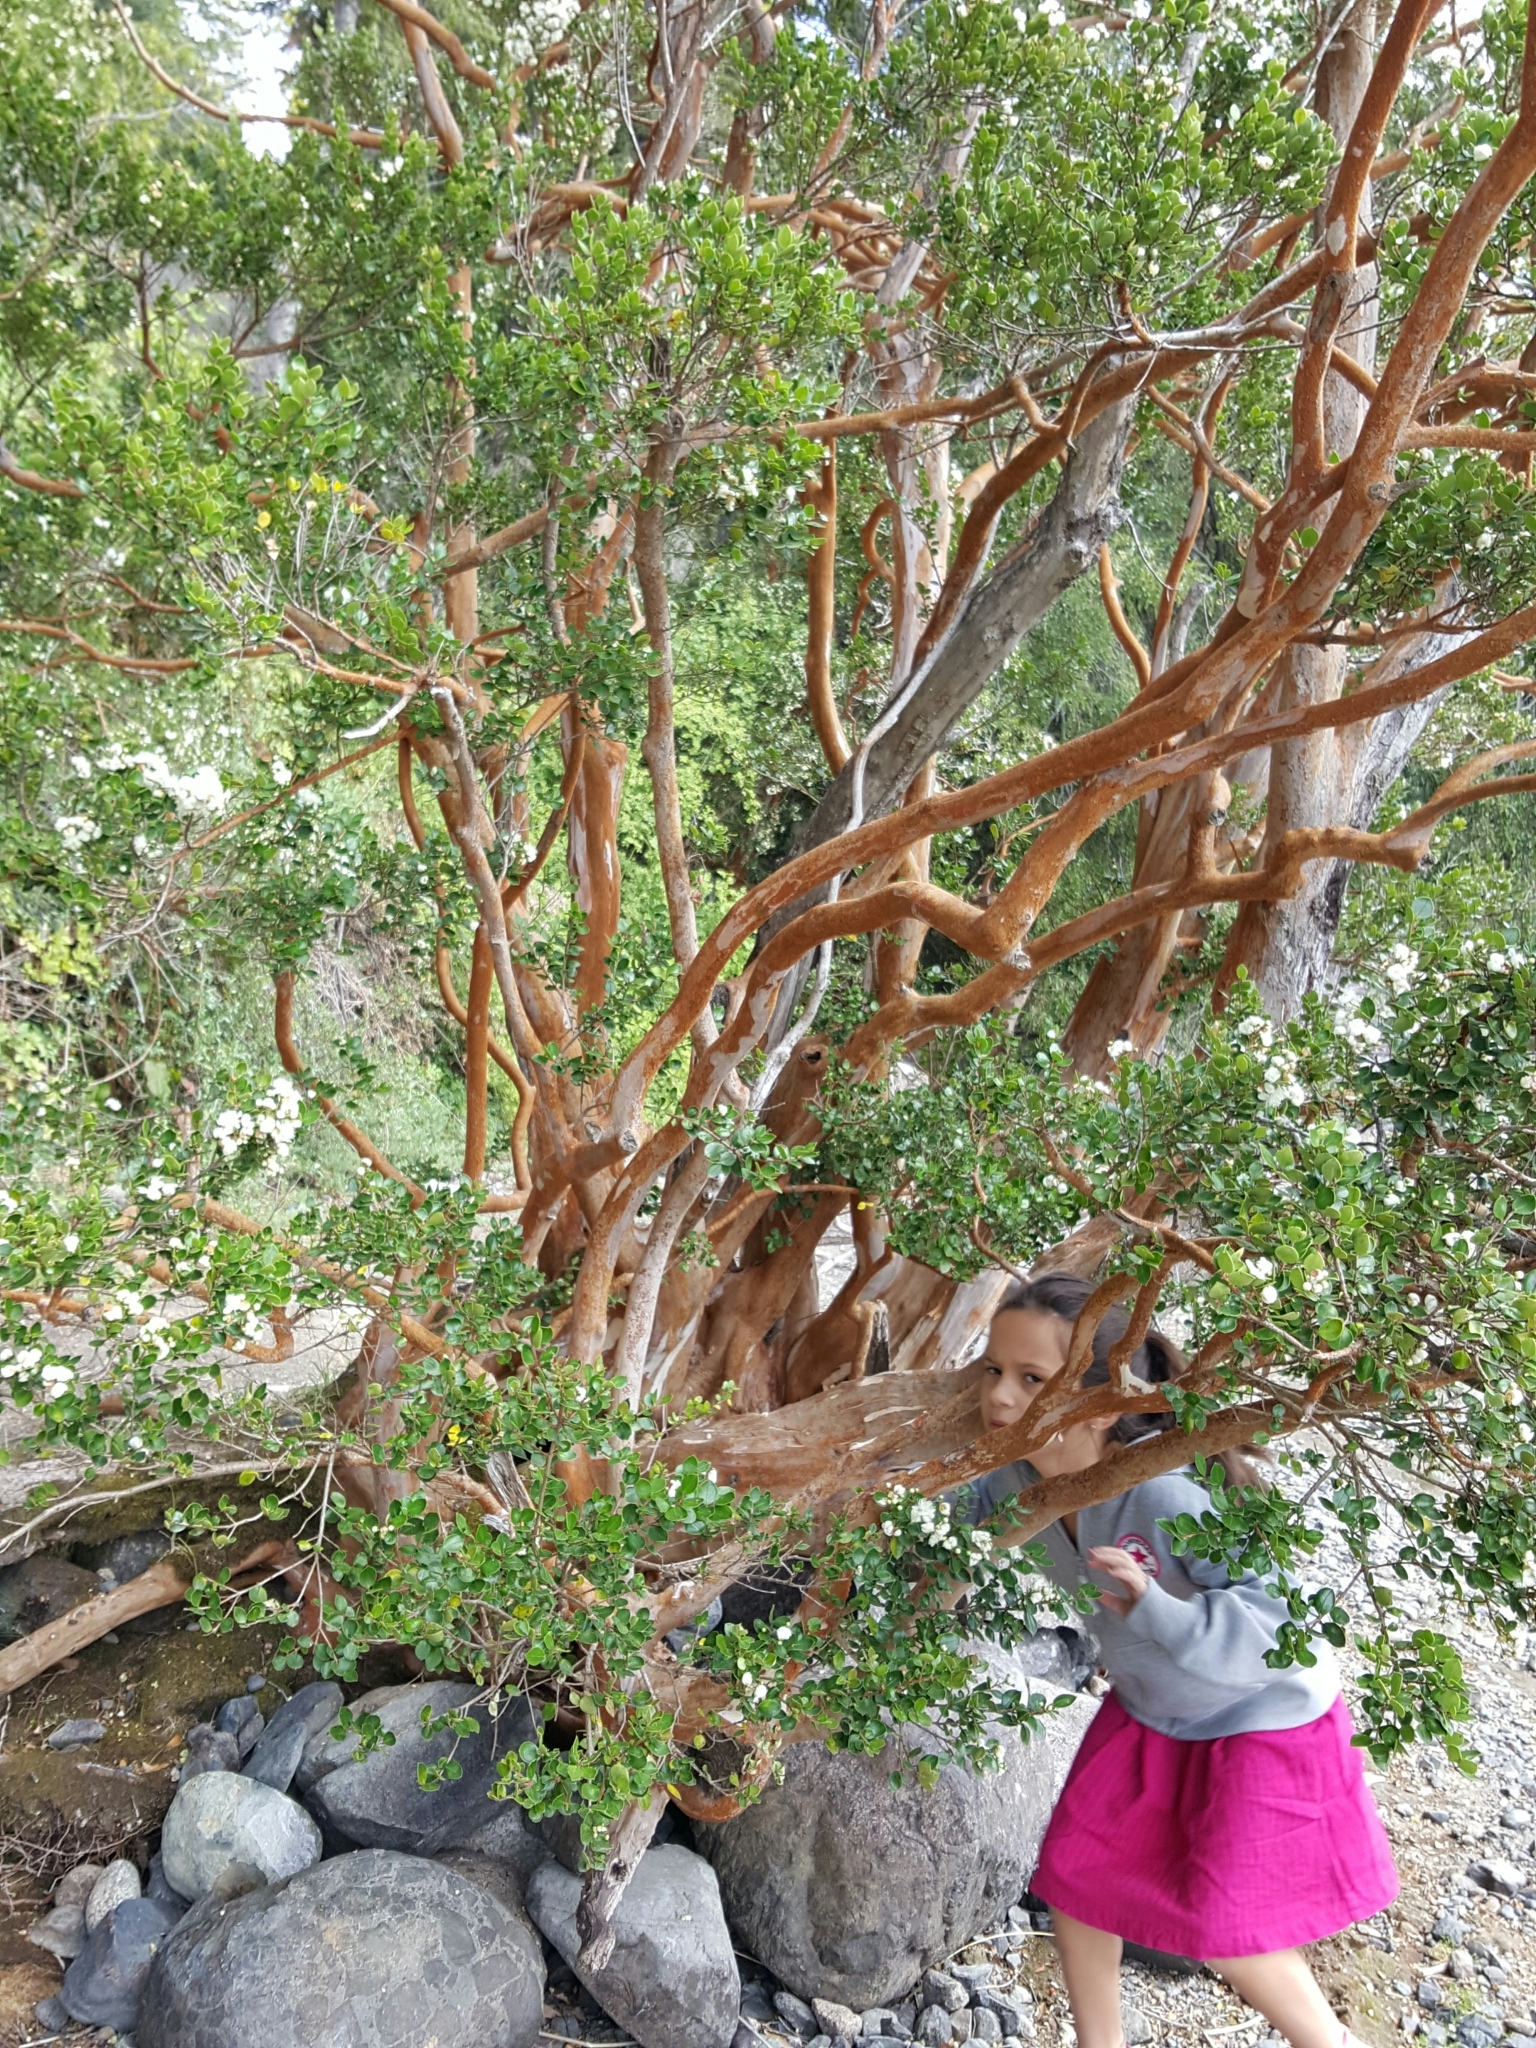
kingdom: Plantae
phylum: Tracheophyta
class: Magnoliopsida
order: Myrtales
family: Myrtaceae
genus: Luma
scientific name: Luma apiculata
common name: Chilean myrtle
